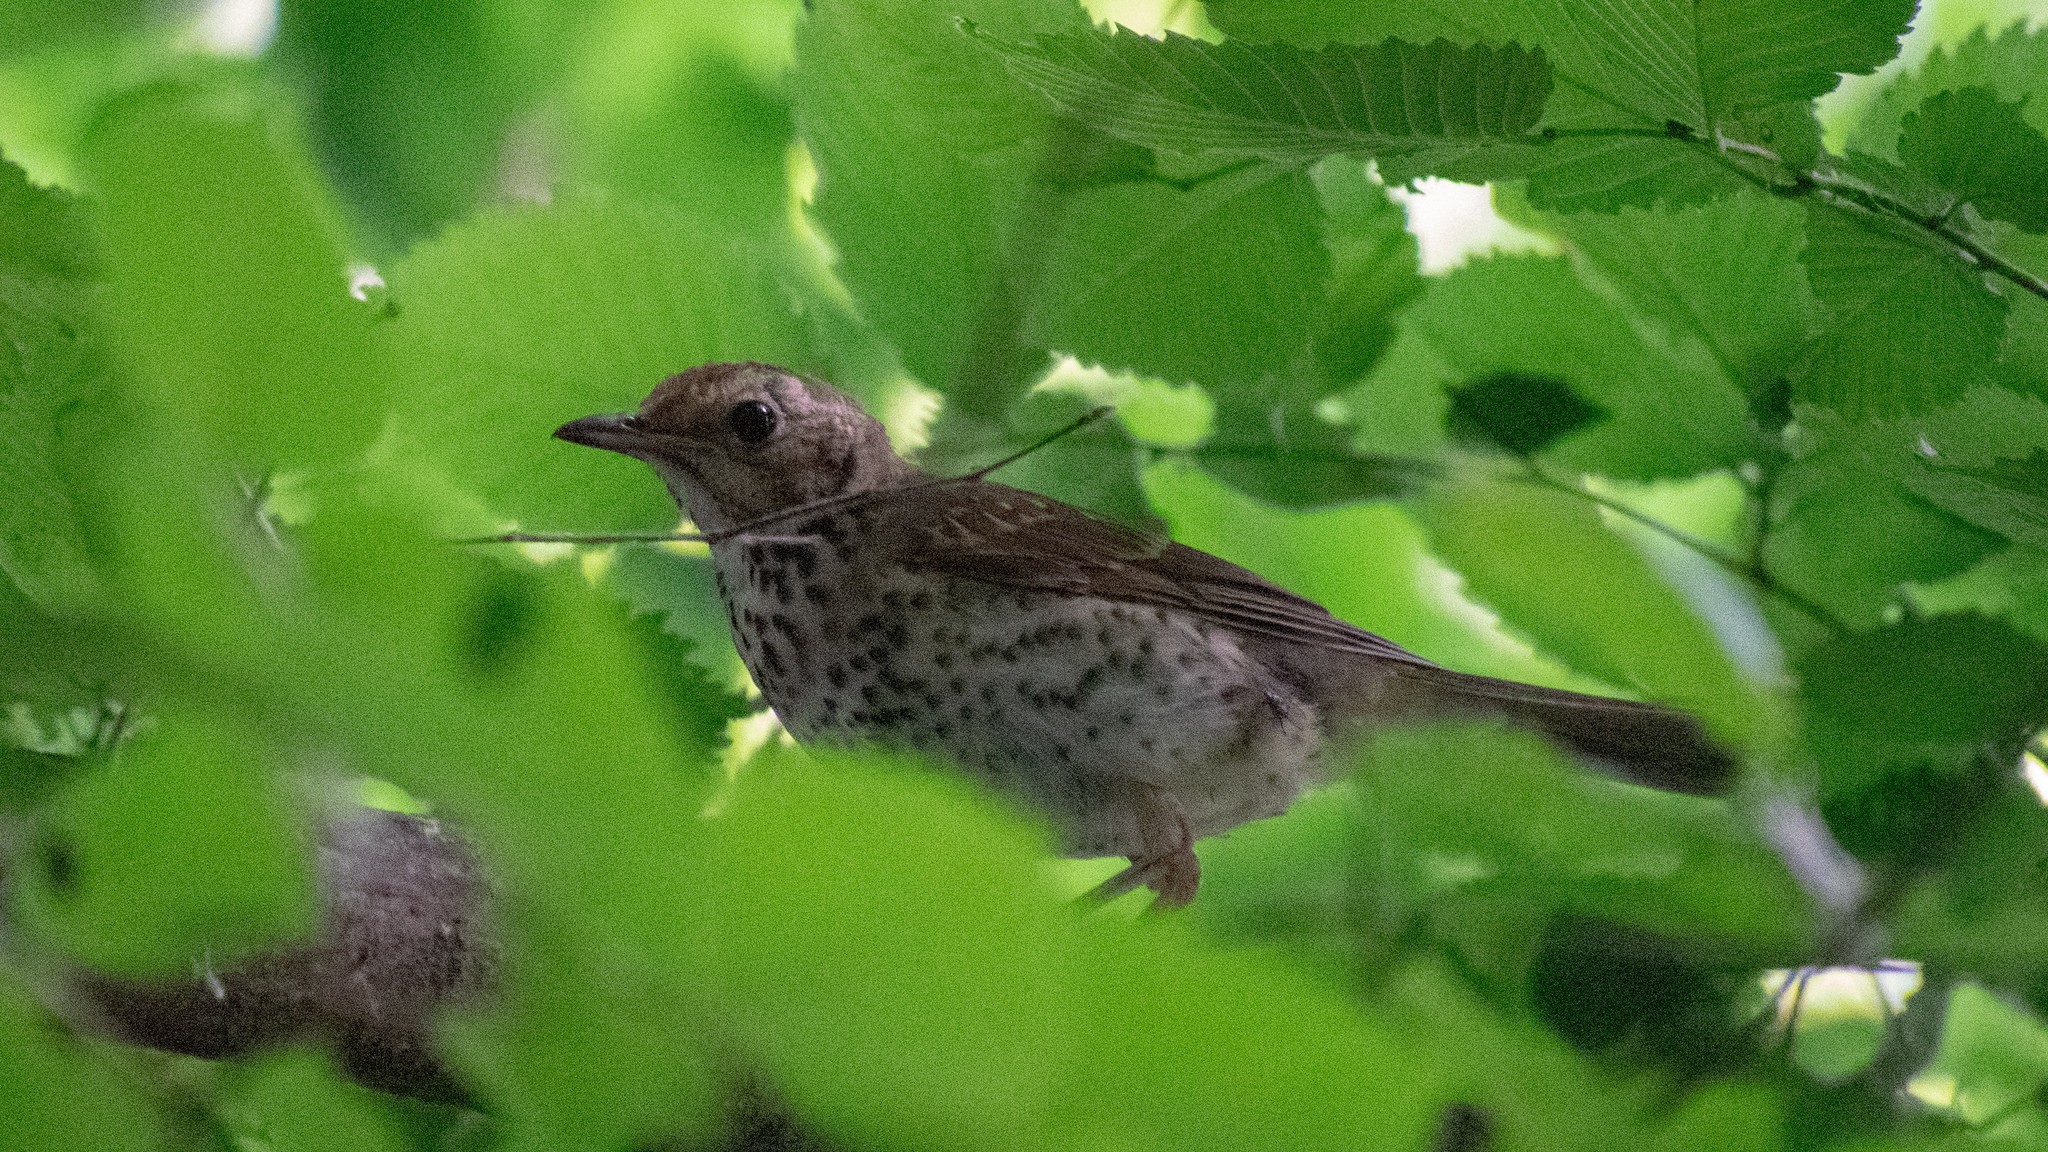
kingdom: Animalia
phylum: Chordata
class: Aves
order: Passeriformes
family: Turdidae
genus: Turdus
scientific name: Turdus philomelos
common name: Song thrush
